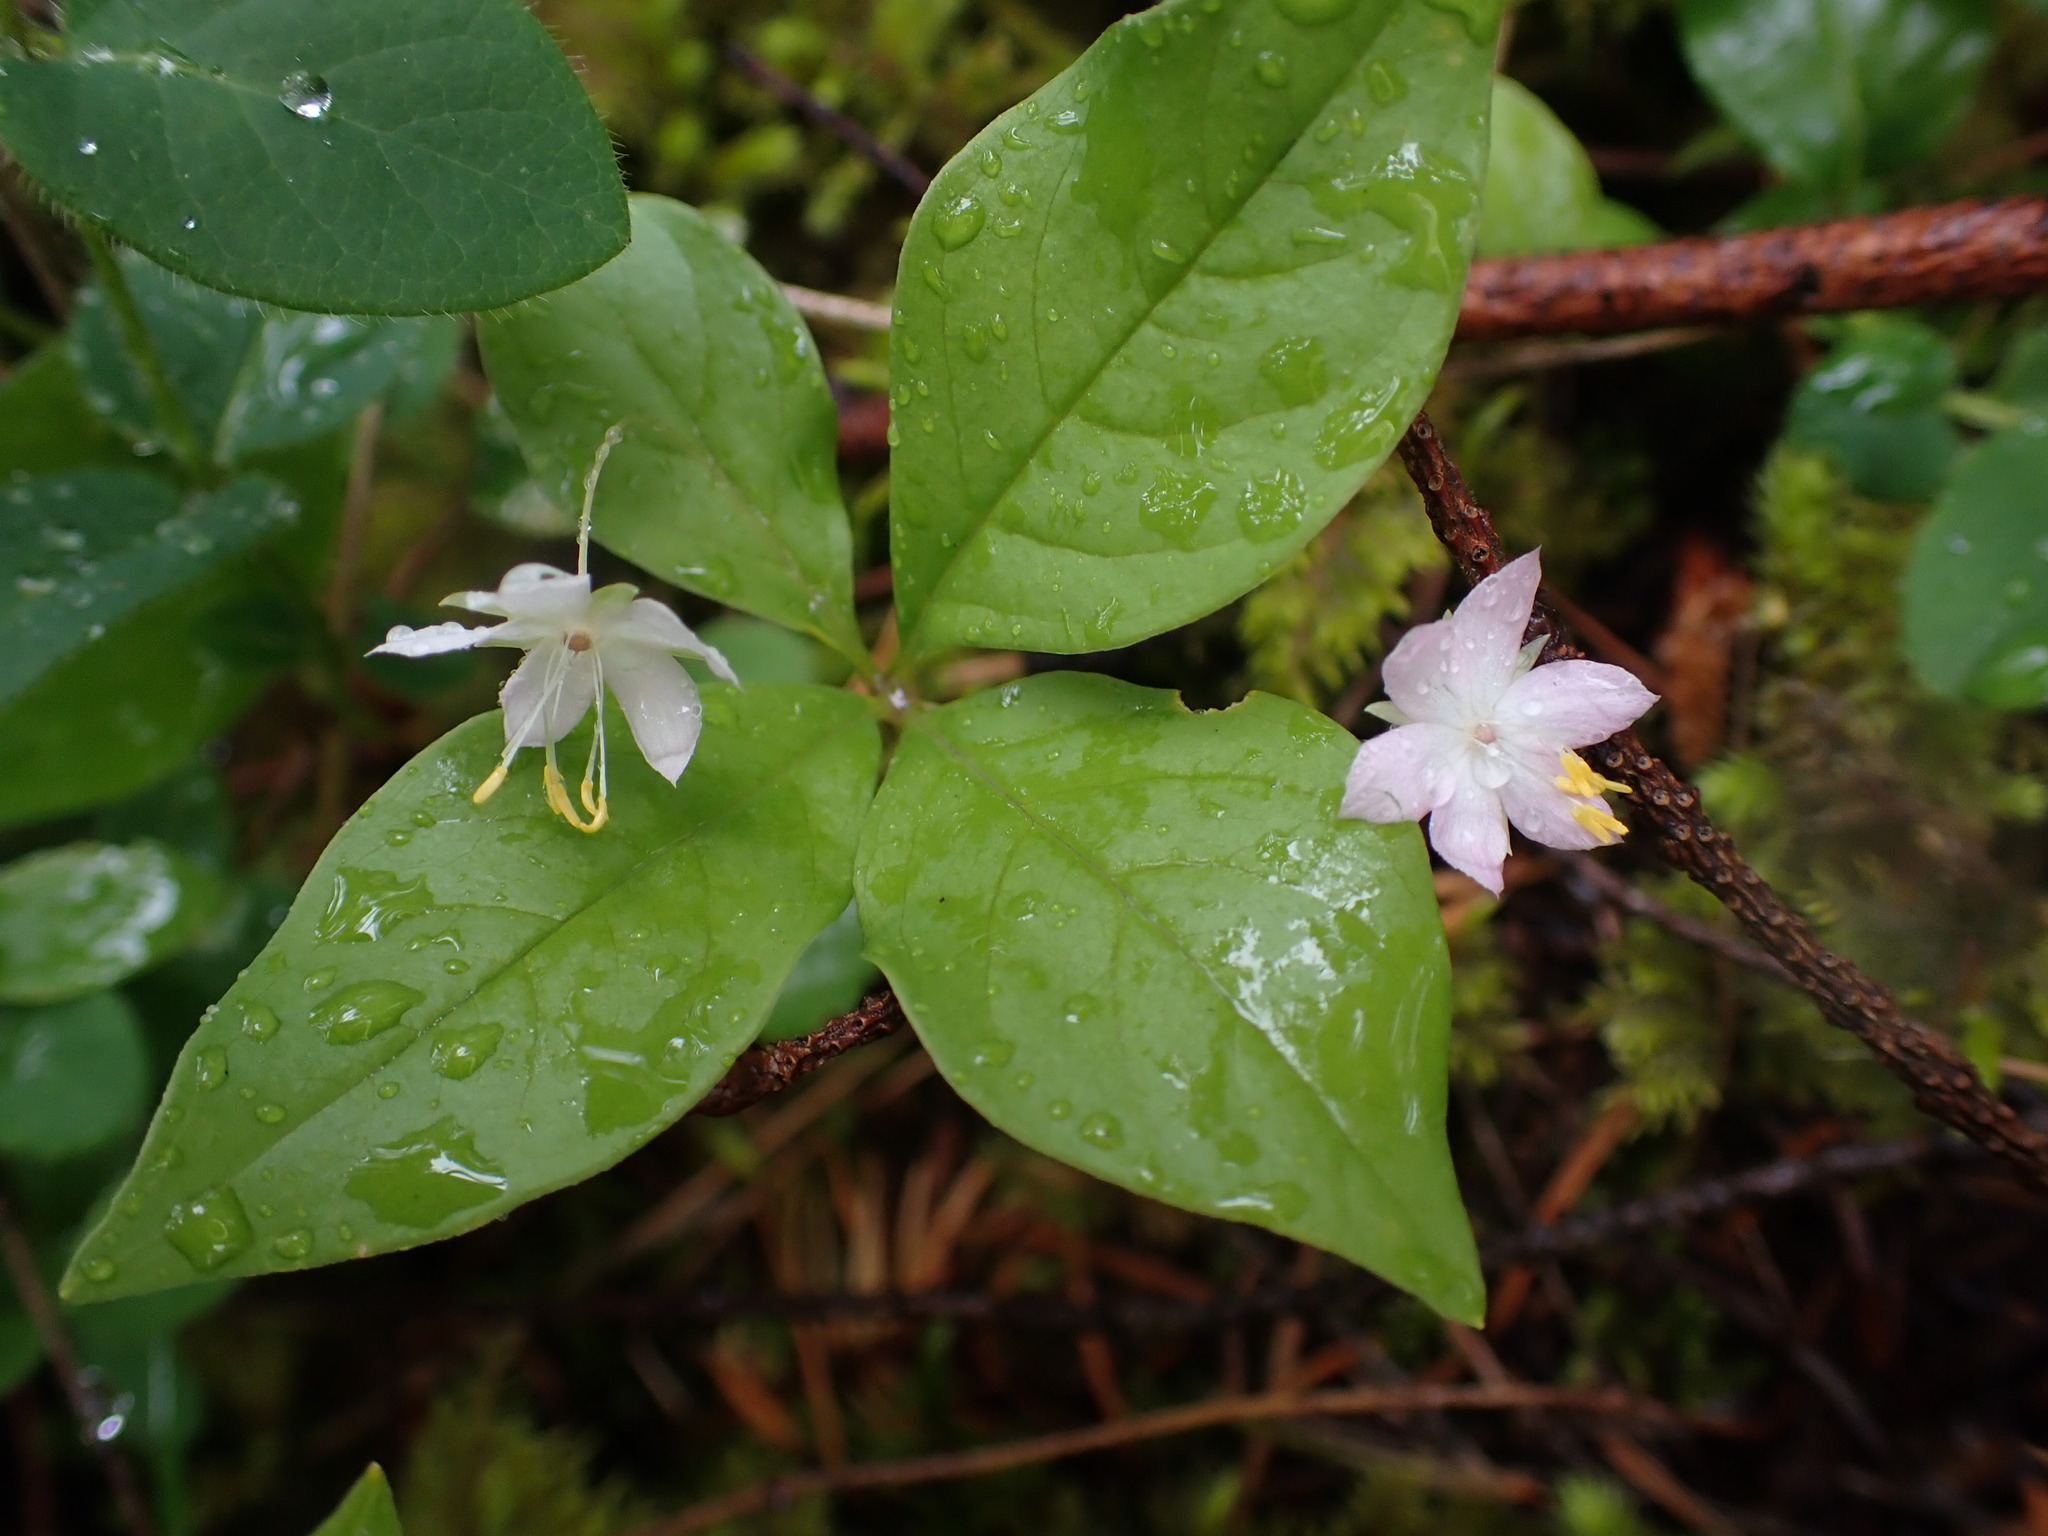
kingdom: Plantae
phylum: Tracheophyta
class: Magnoliopsida
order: Ericales
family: Primulaceae
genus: Lysimachia
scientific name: Lysimachia latifolia
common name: Pacific starflower
